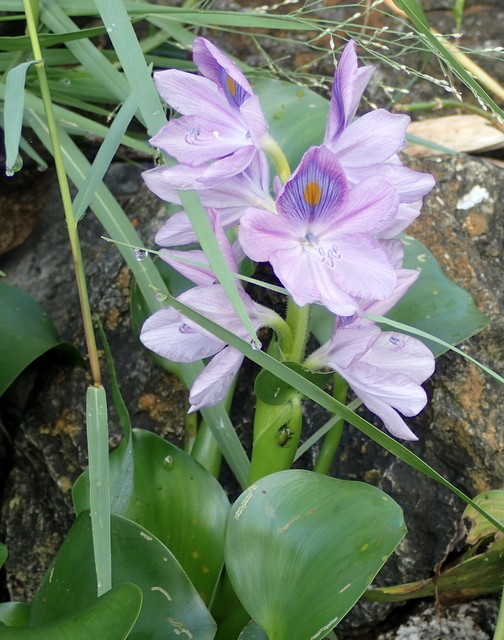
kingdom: Plantae
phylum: Tracheophyta
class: Liliopsida
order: Commelinales
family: Pontederiaceae
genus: Pontederia
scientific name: Pontederia crassipes
